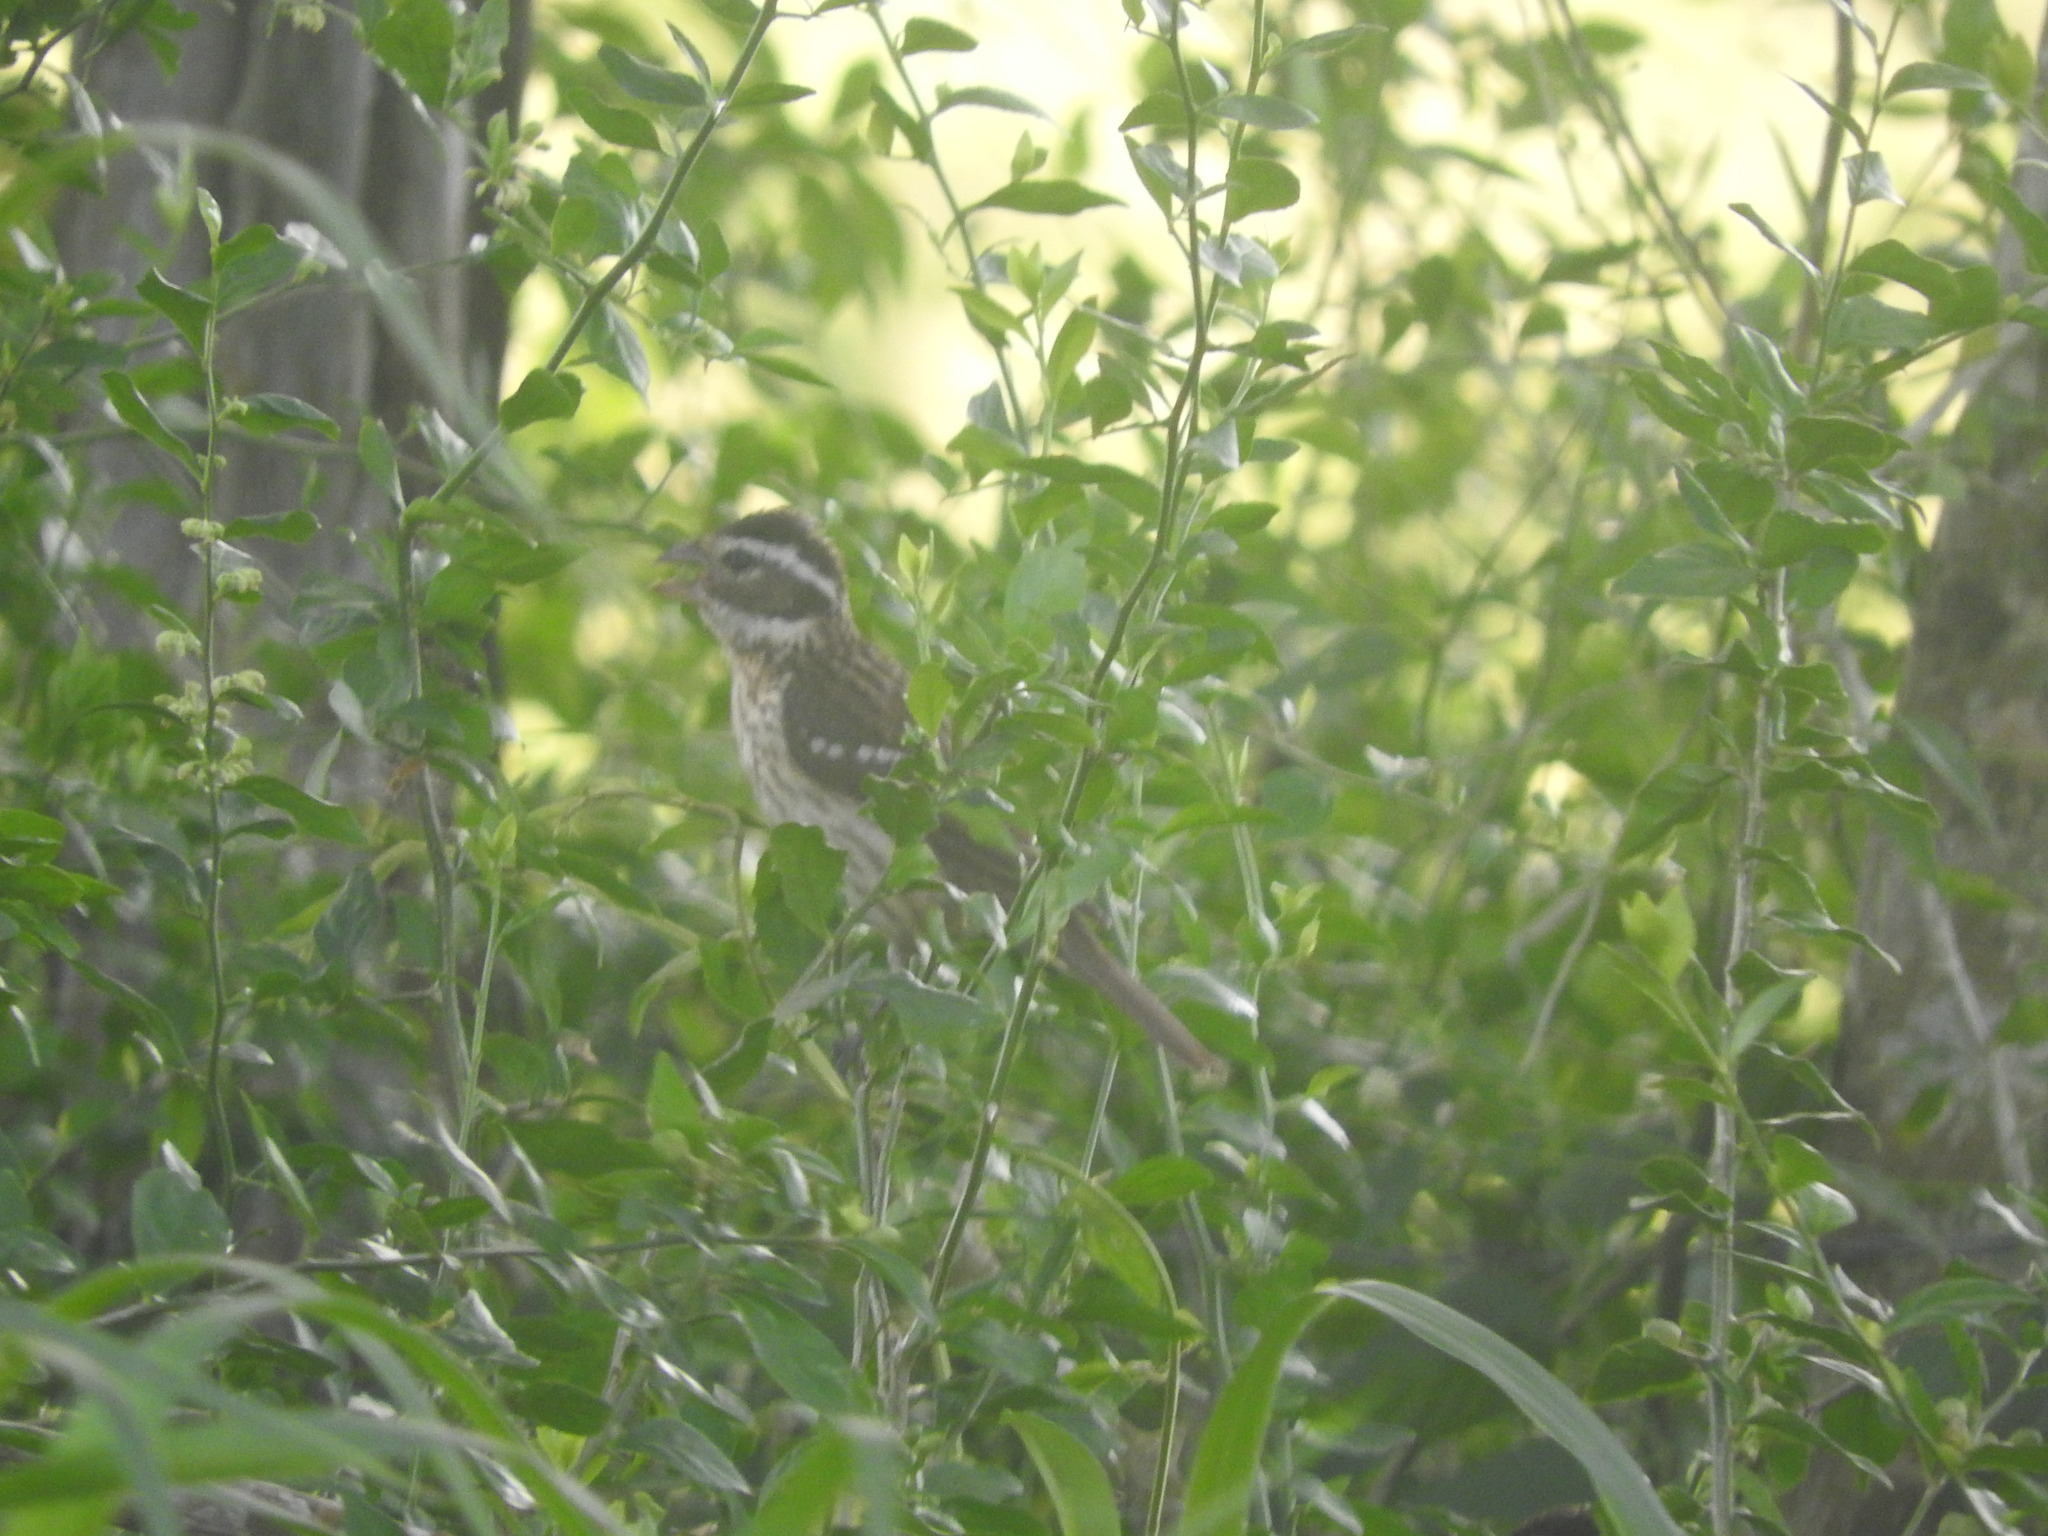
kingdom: Animalia
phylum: Chordata
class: Aves
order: Passeriformes
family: Cardinalidae
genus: Pheucticus
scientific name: Pheucticus ludovicianus
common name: Rose-breasted grosbeak
